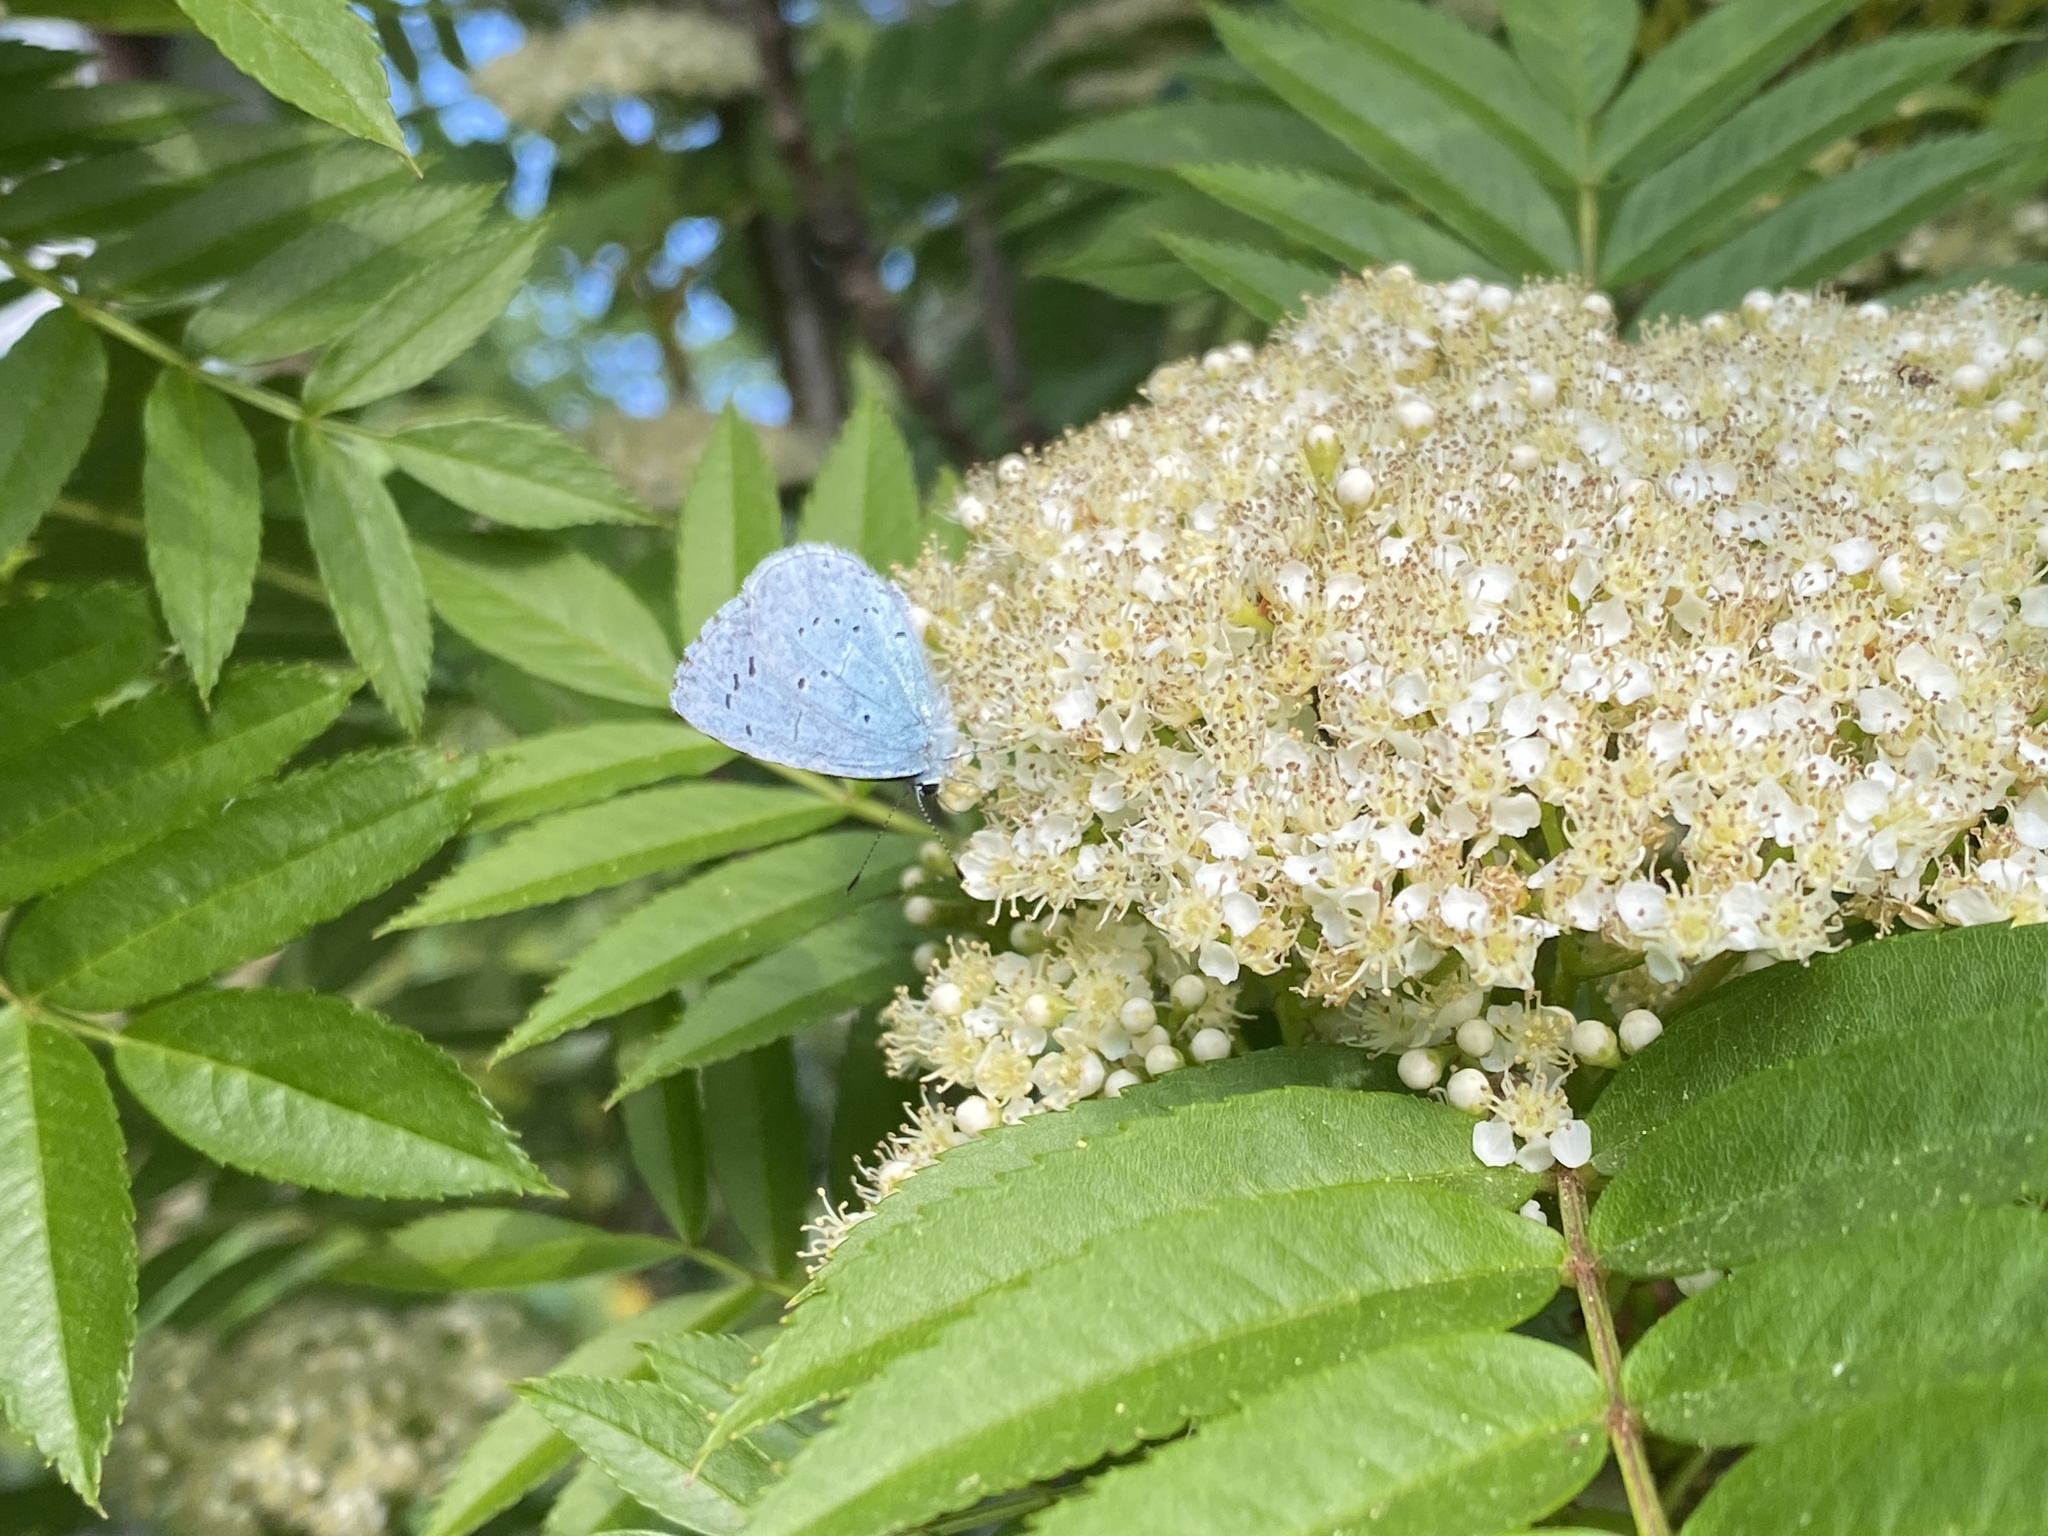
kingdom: Animalia
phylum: Arthropoda
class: Insecta
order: Lepidoptera
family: Lycaenidae
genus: Celastrina
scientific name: Celastrina argiolus
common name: Holly blue
